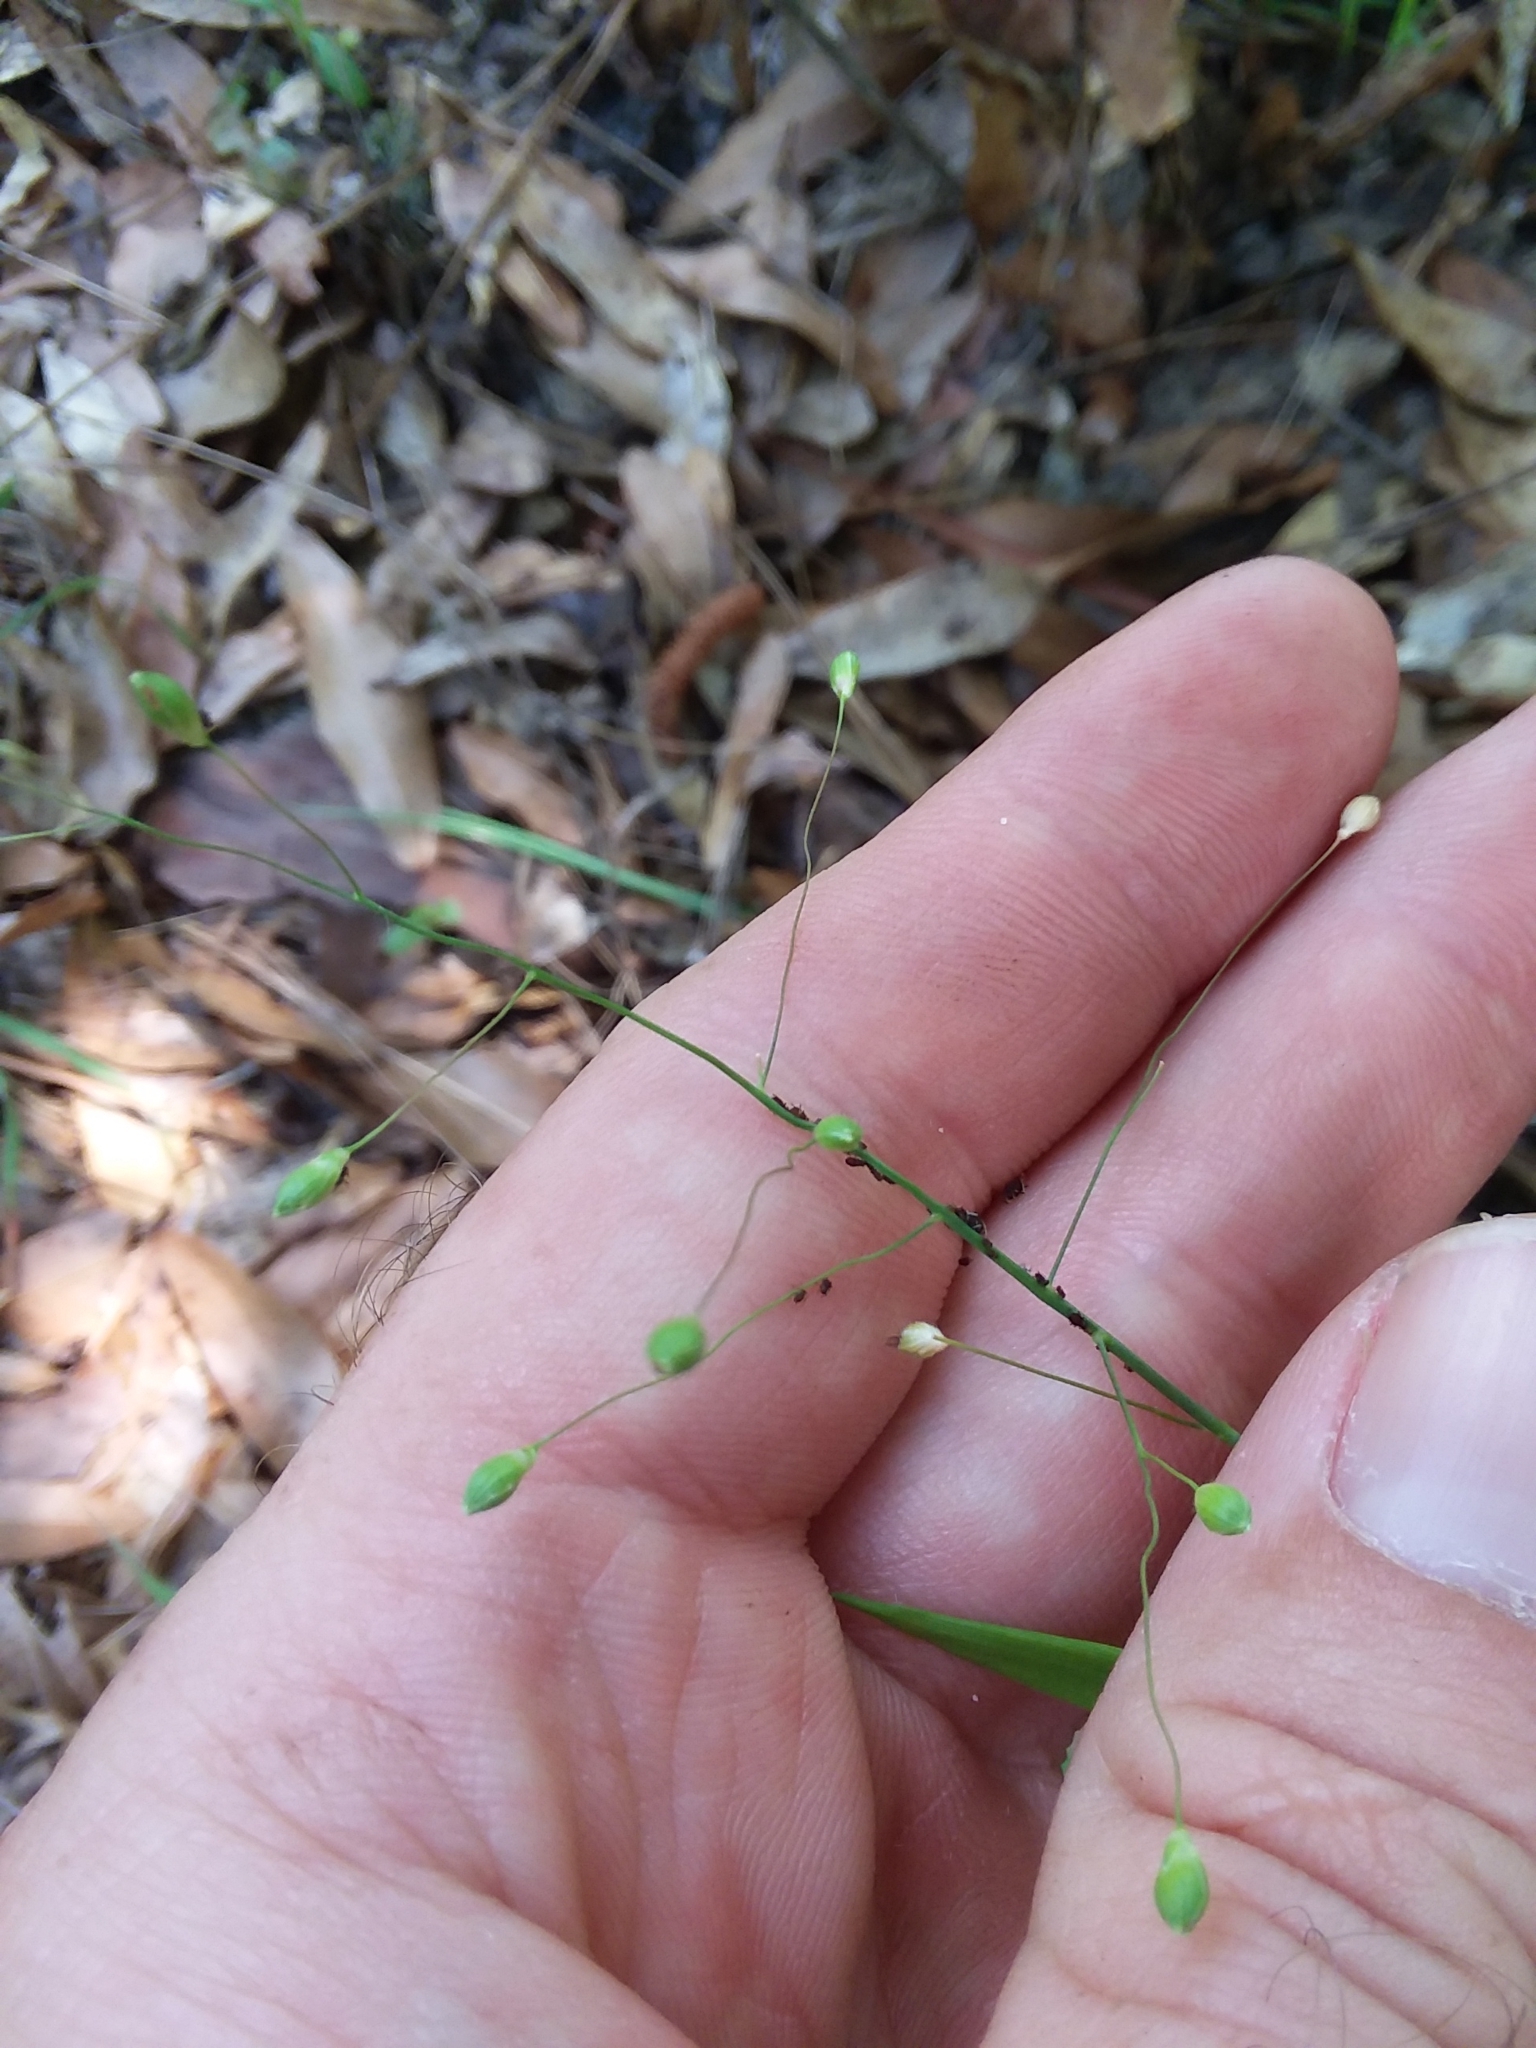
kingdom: Plantae
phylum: Tracheophyta
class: Liliopsida
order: Poales
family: Poaceae
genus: Dichanthelium
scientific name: Dichanthelium oligosanthes
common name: Few-anther obscuregrass
